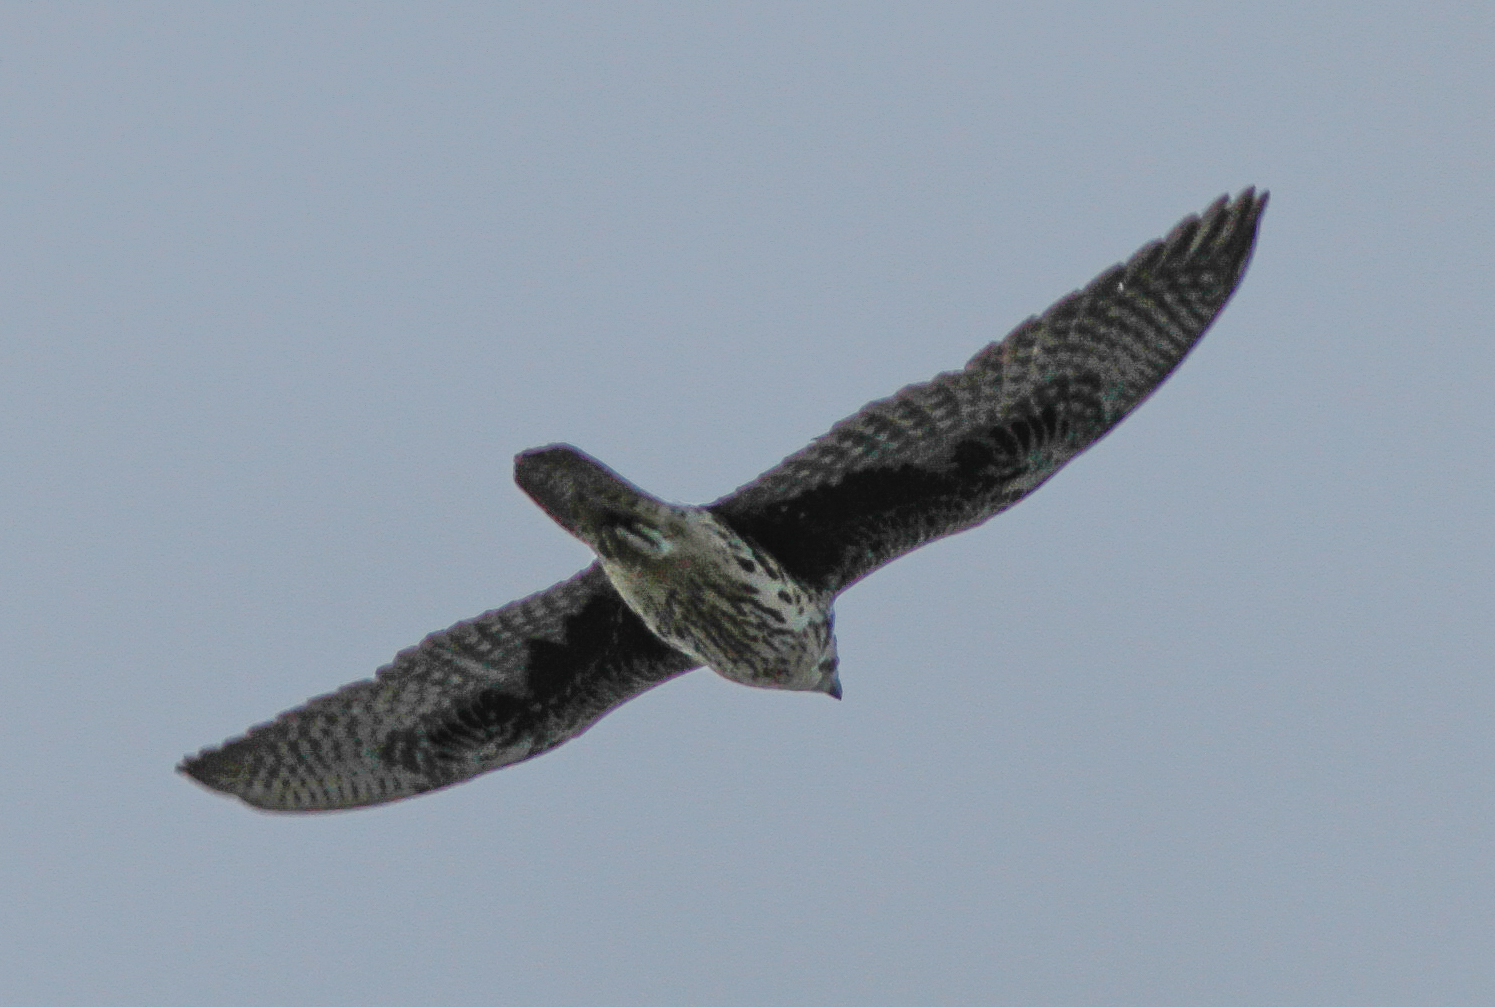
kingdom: Animalia
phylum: Chordata
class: Aves
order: Falconiformes
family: Falconidae
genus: Falco
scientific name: Falco mexicanus
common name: Prairie falcon
